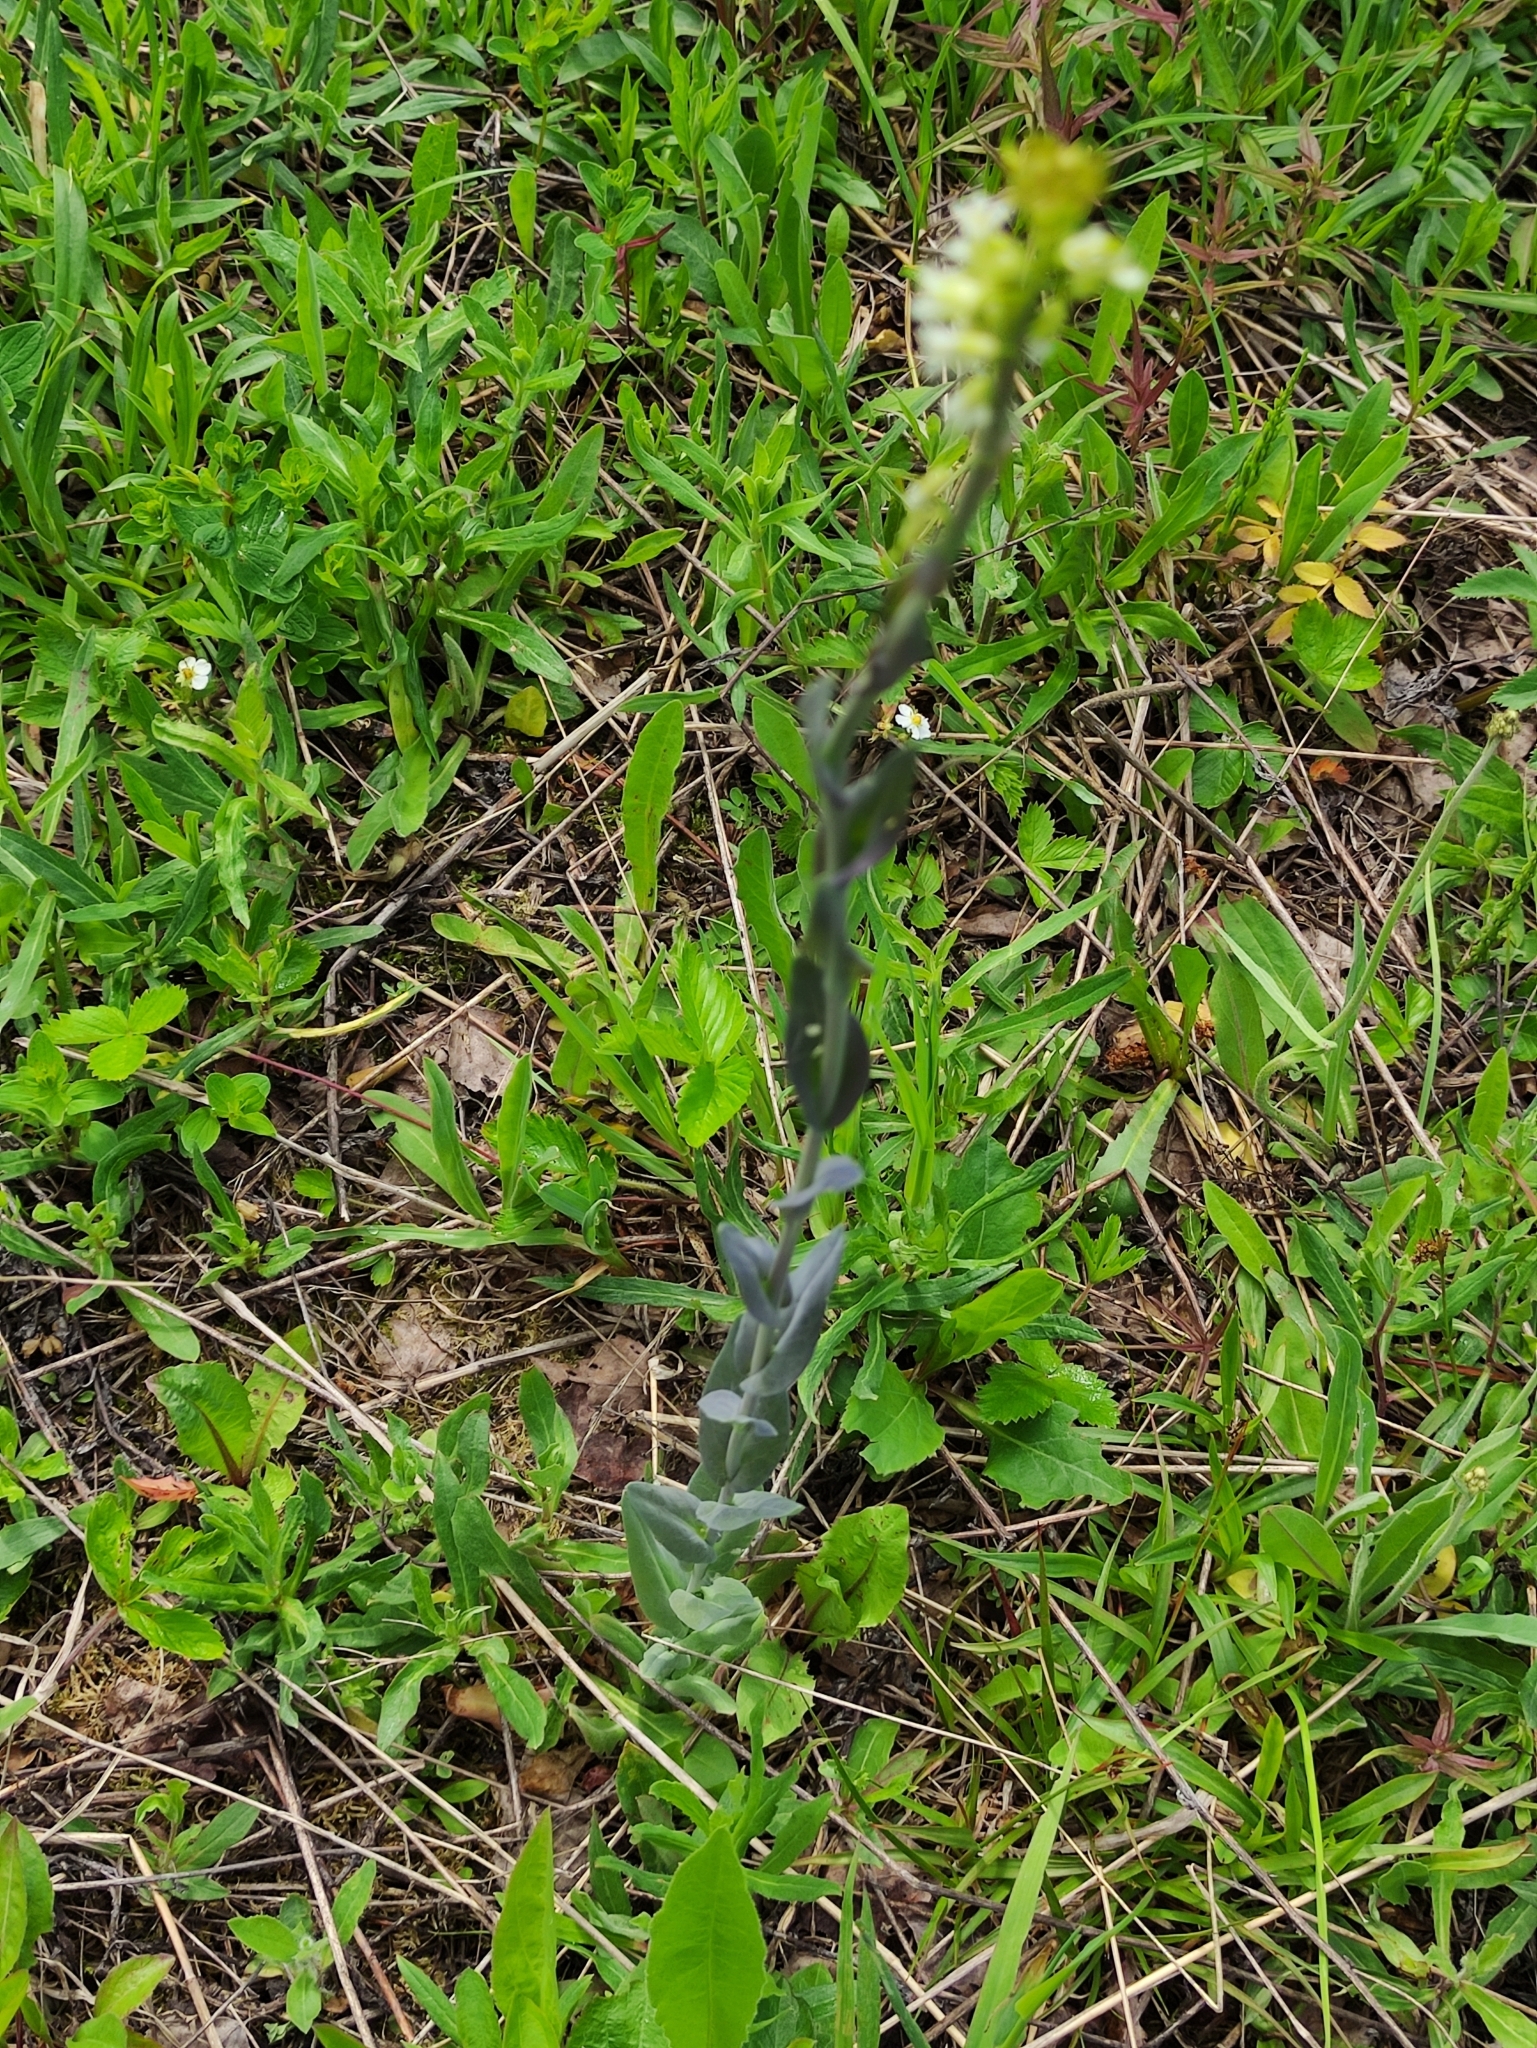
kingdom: Plantae
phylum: Tracheophyta
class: Magnoliopsida
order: Brassicales
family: Brassicaceae
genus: Turritis
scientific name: Turritis glabra
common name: Tower rockcress
